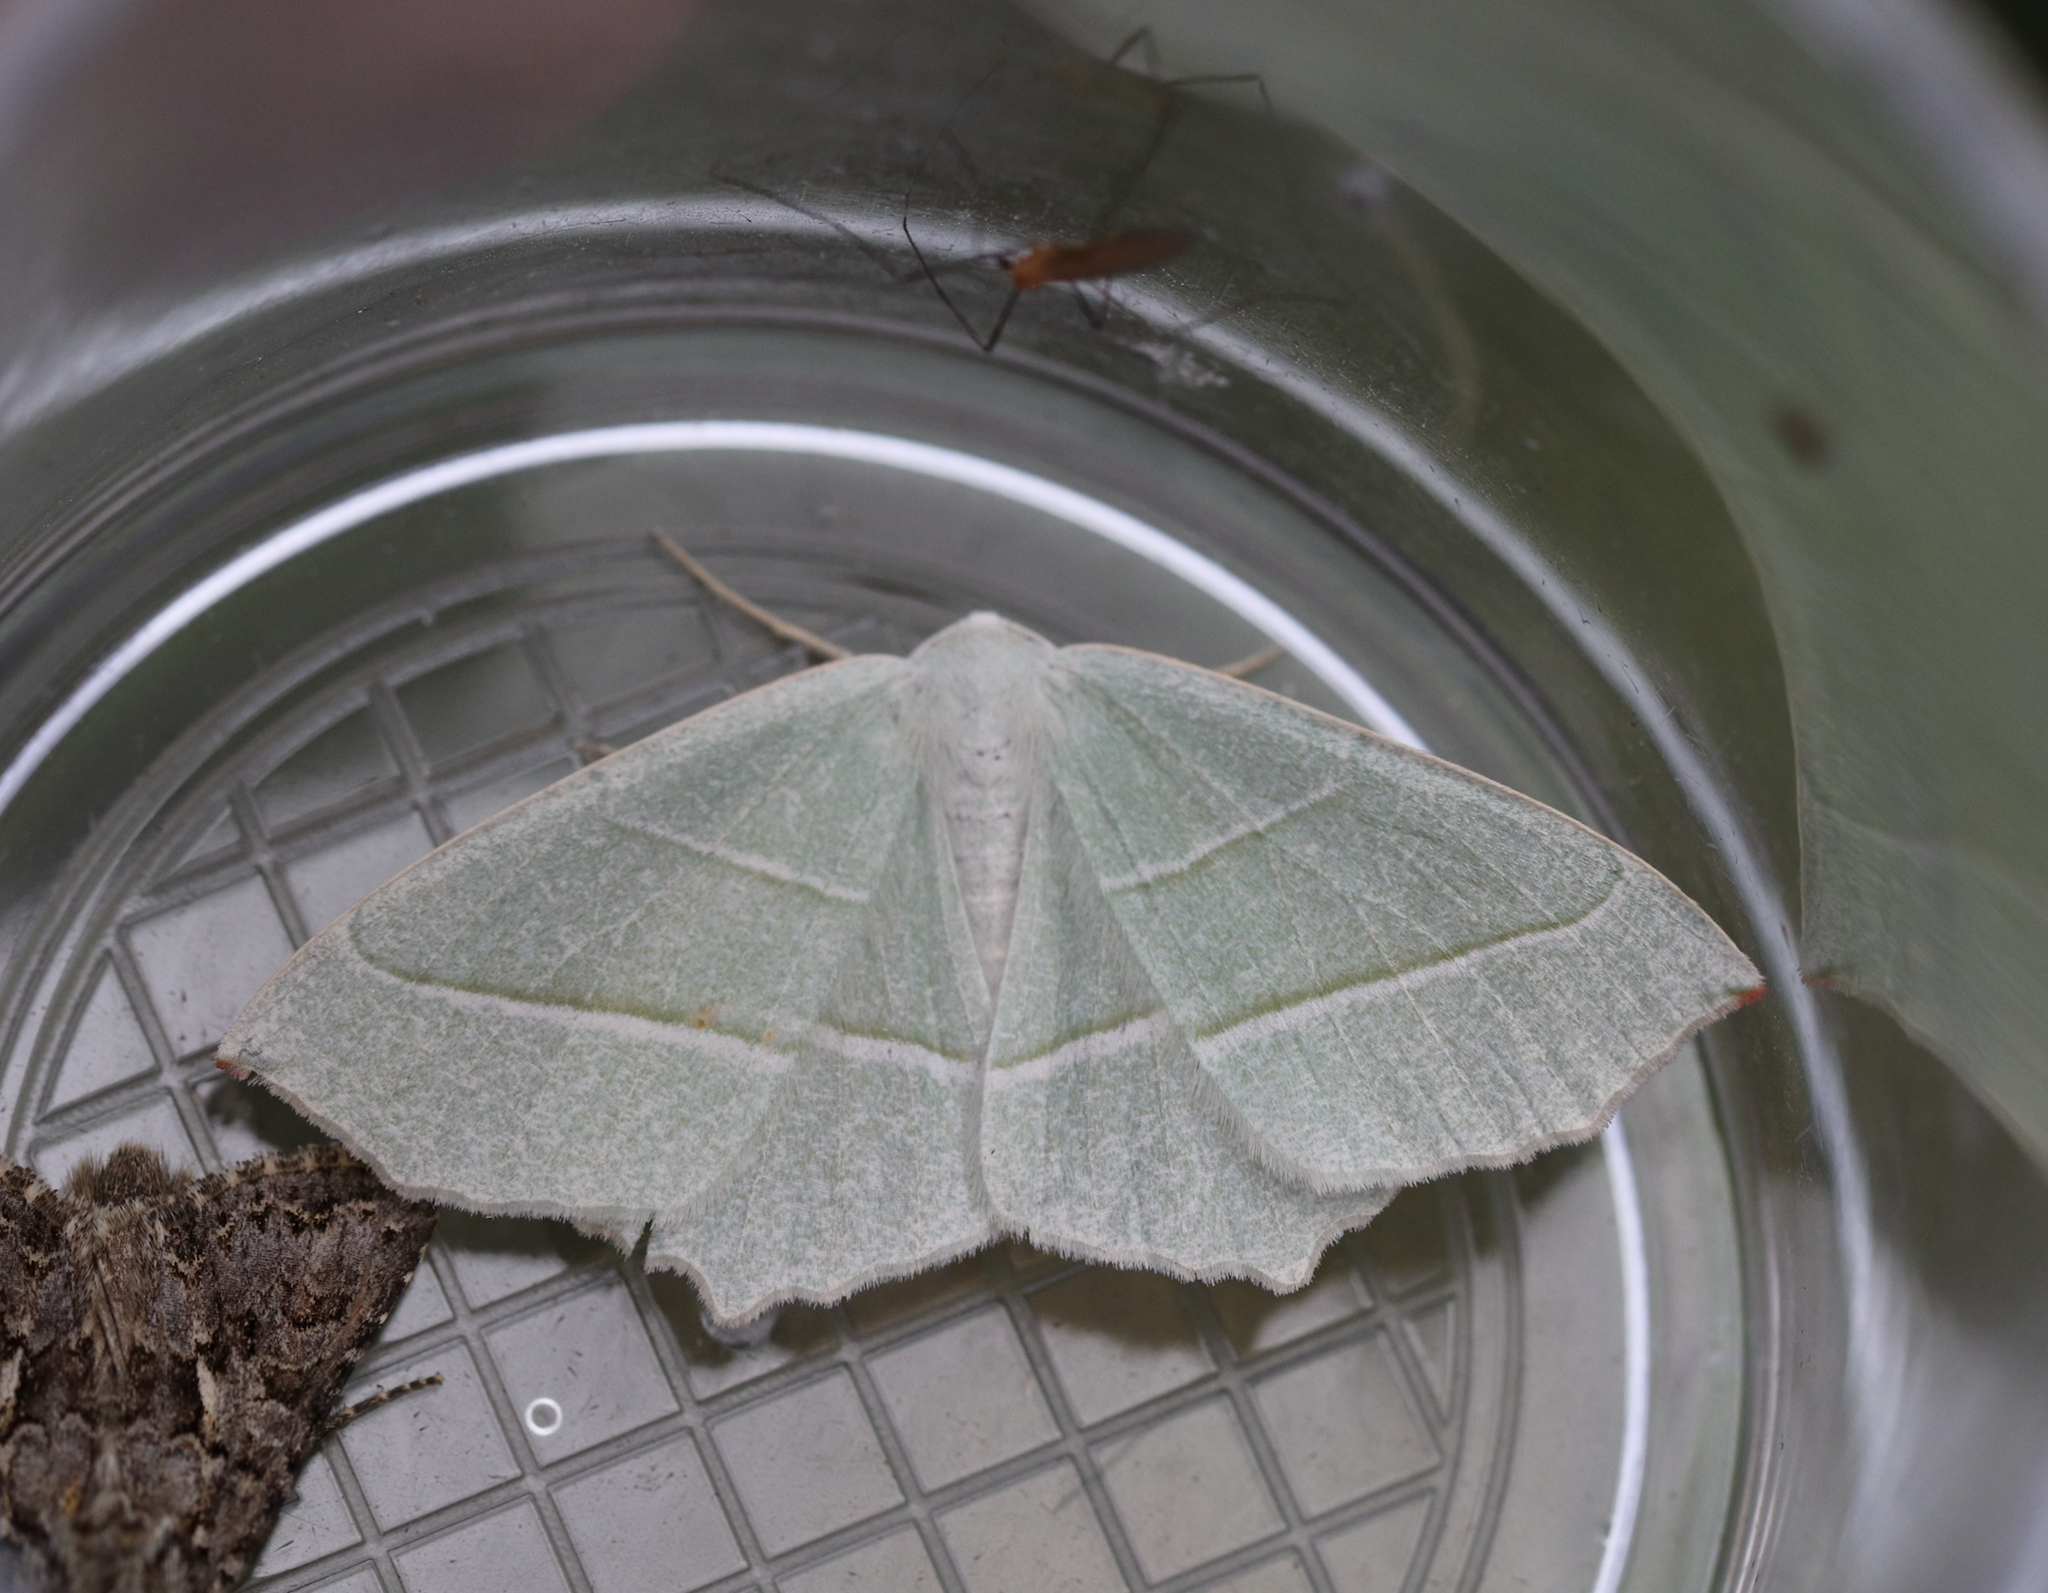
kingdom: Animalia
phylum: Arthropoda
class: Insecta
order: Lepidoptera
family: Geometridae
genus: Campaea
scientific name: Campaea margaritaria
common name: Light emerald
